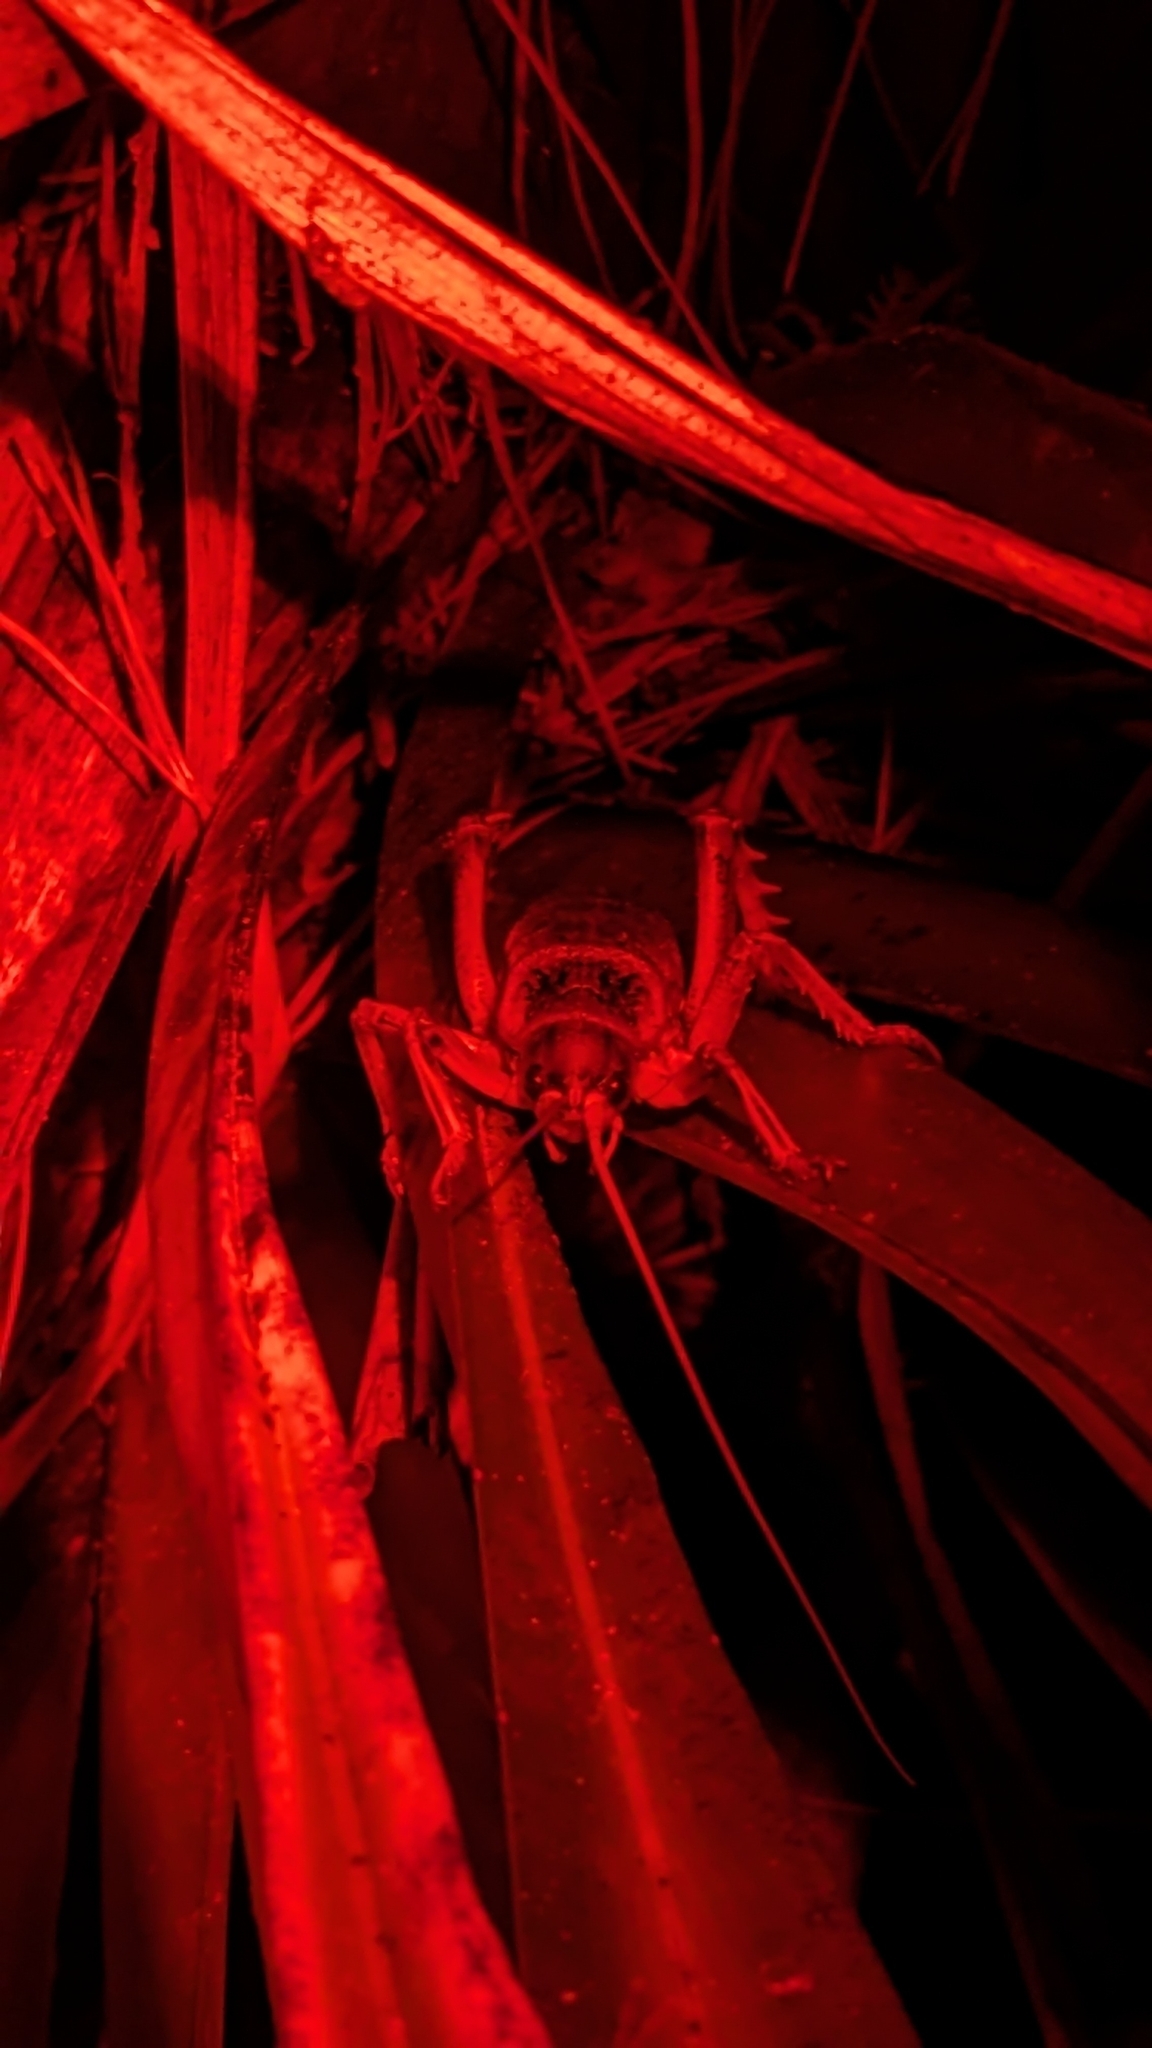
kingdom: Animalia
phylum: Arthropoda
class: Insecta
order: Orthoptera
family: Anostostomatidae
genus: Deinacrida
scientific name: Deinacrida rugosa
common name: Stephens island weta
